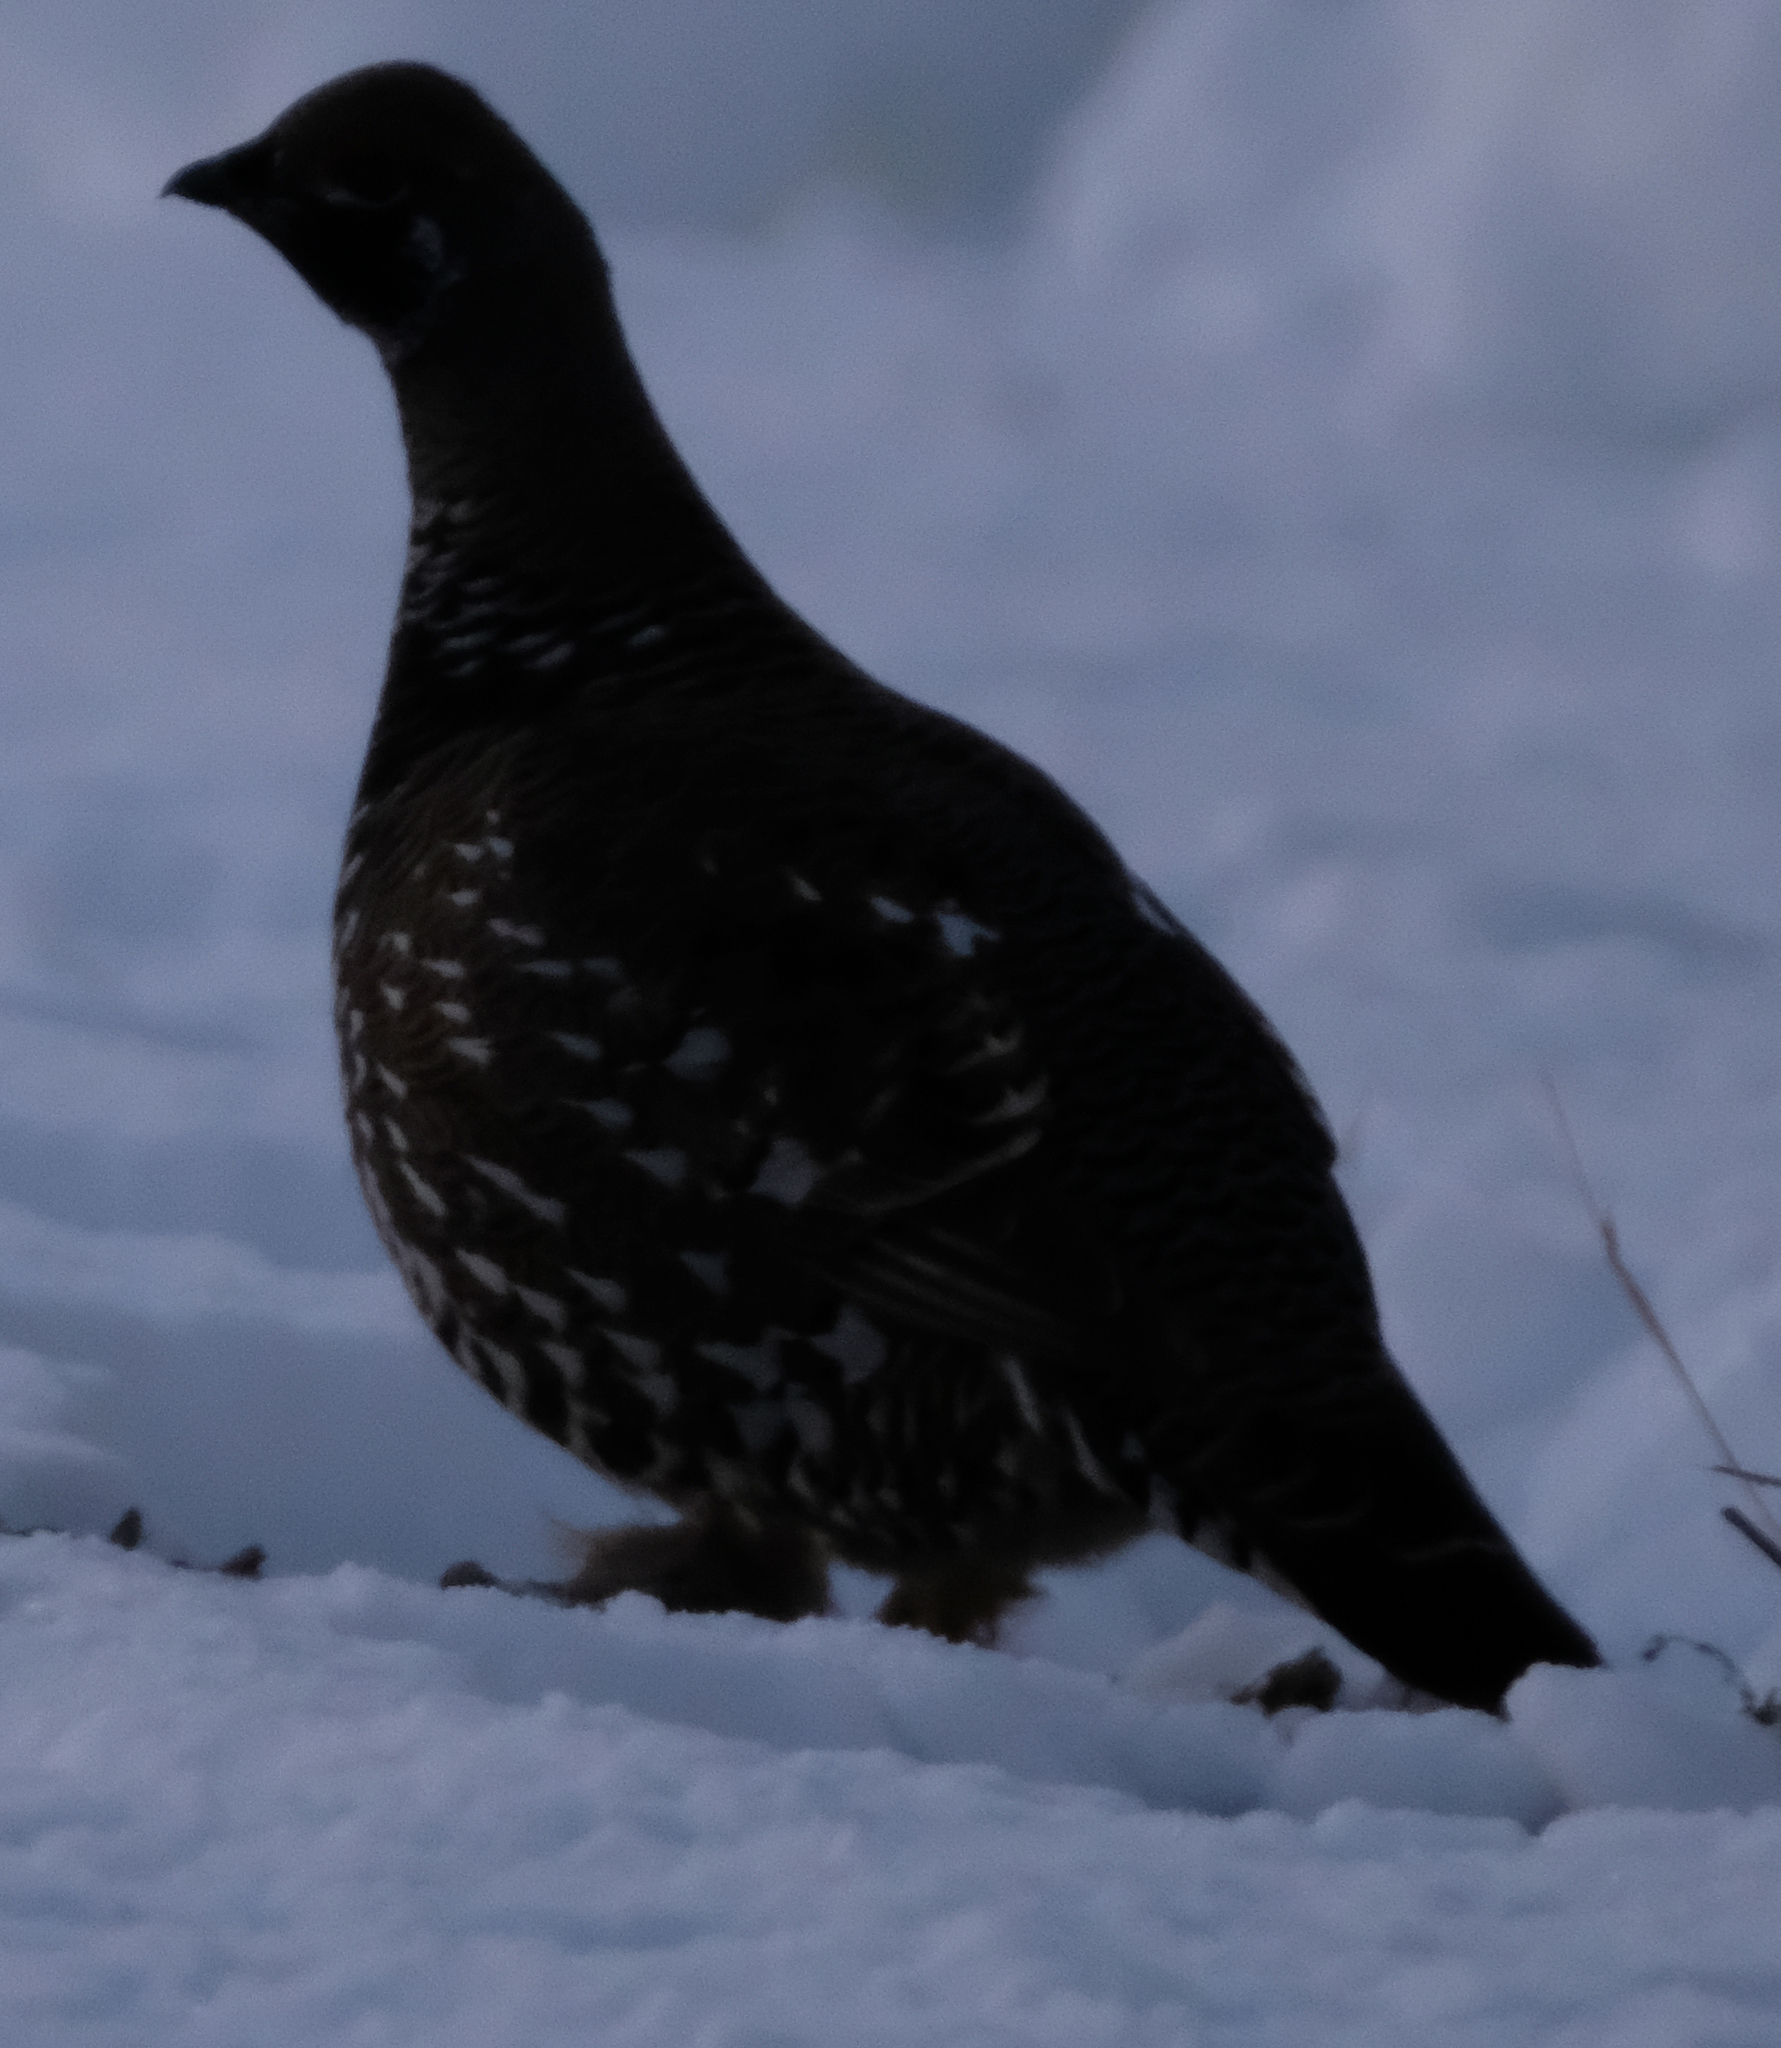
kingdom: Animalia
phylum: Chordata
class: Aves
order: Galliformes
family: Phasianidae
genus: Canachites
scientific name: Canachites canadensis
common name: Spruce grouse
